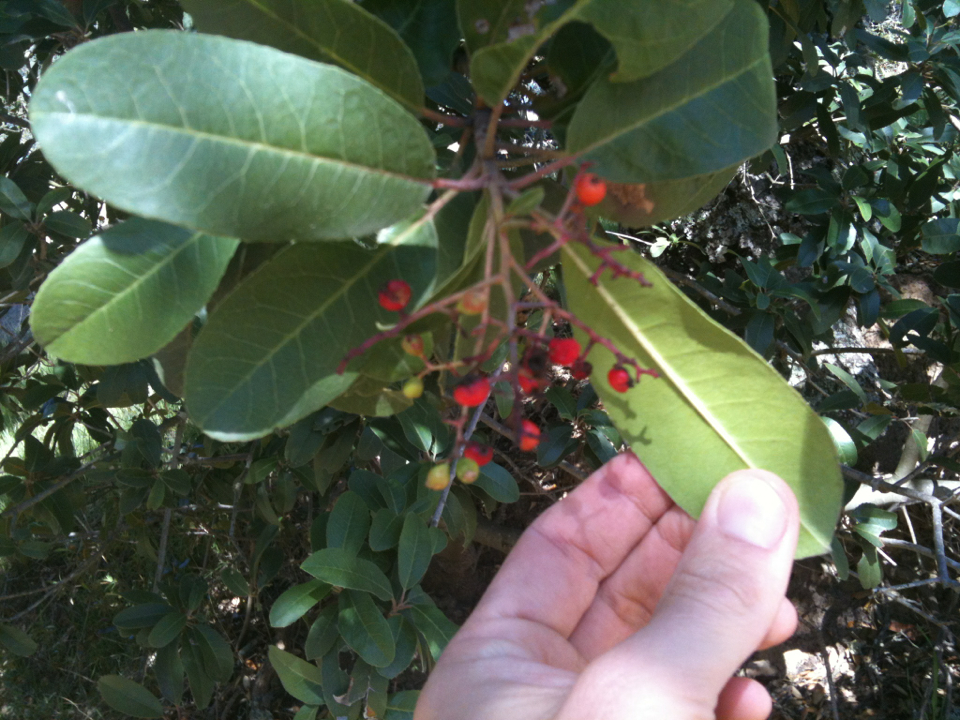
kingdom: Plantae
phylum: Tracheophyta
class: Magnoliopsida
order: Rosales
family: Rosaceae
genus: Heteromeles
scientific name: Heteromeles arbutifolia
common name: California-holly
